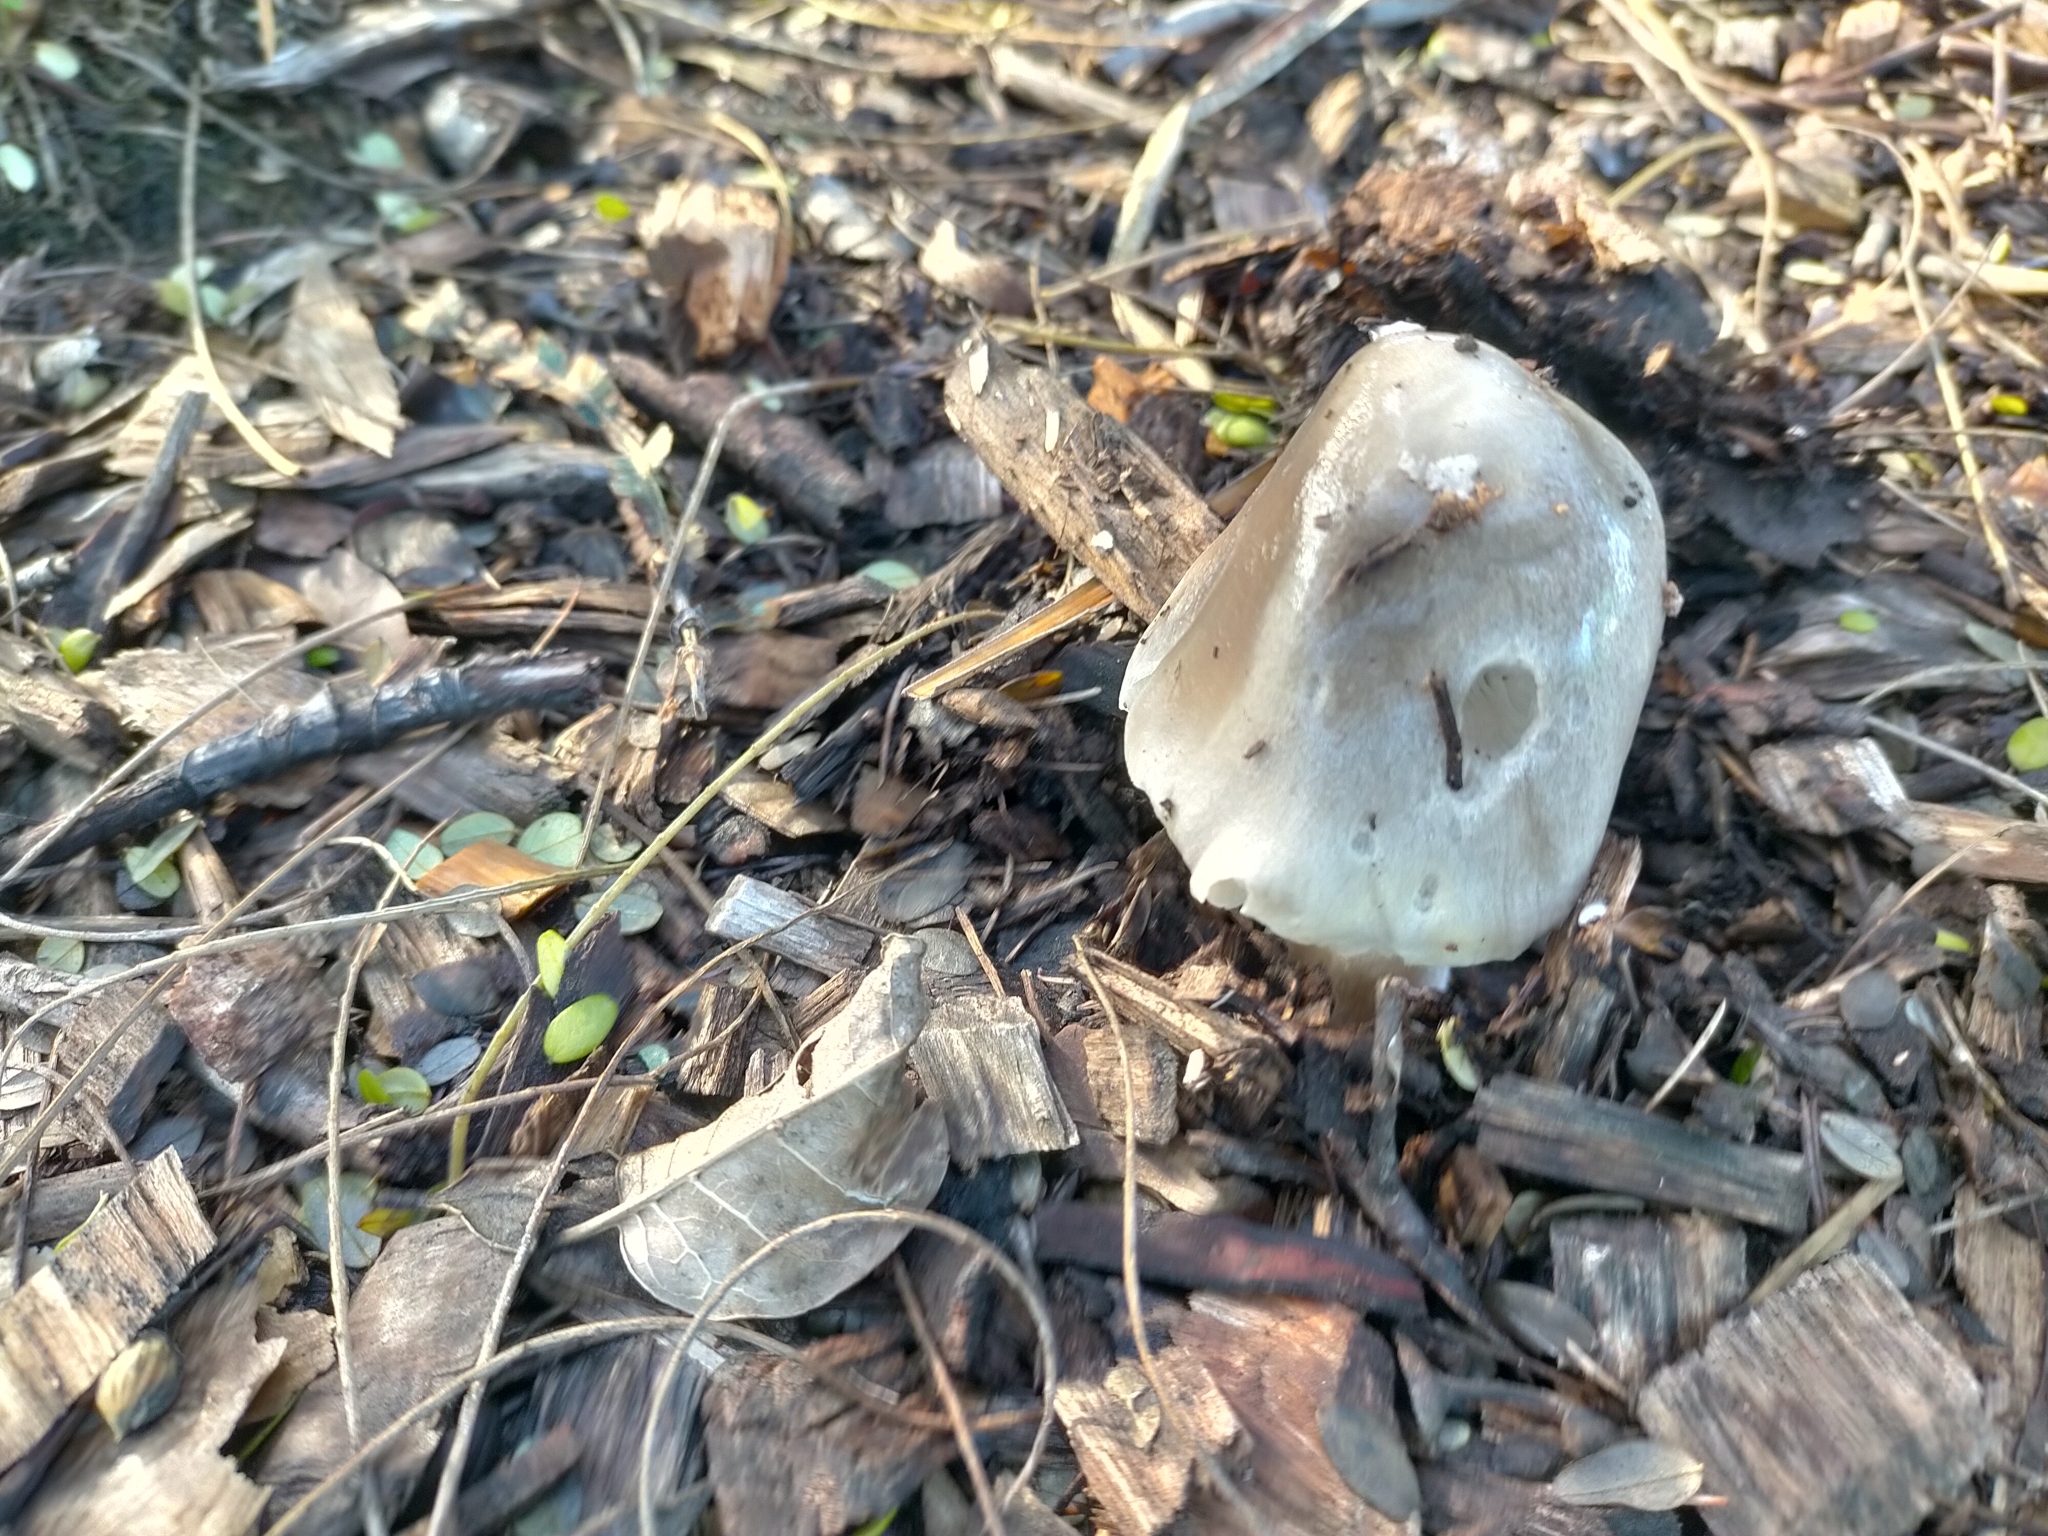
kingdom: Fungi
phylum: Basidiomycota
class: Agaricomycetes
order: Agaricales
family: Pluteaceae
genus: Volvopluteus
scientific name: Volvopluteus gloiocephalus
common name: Stubble rosegill
